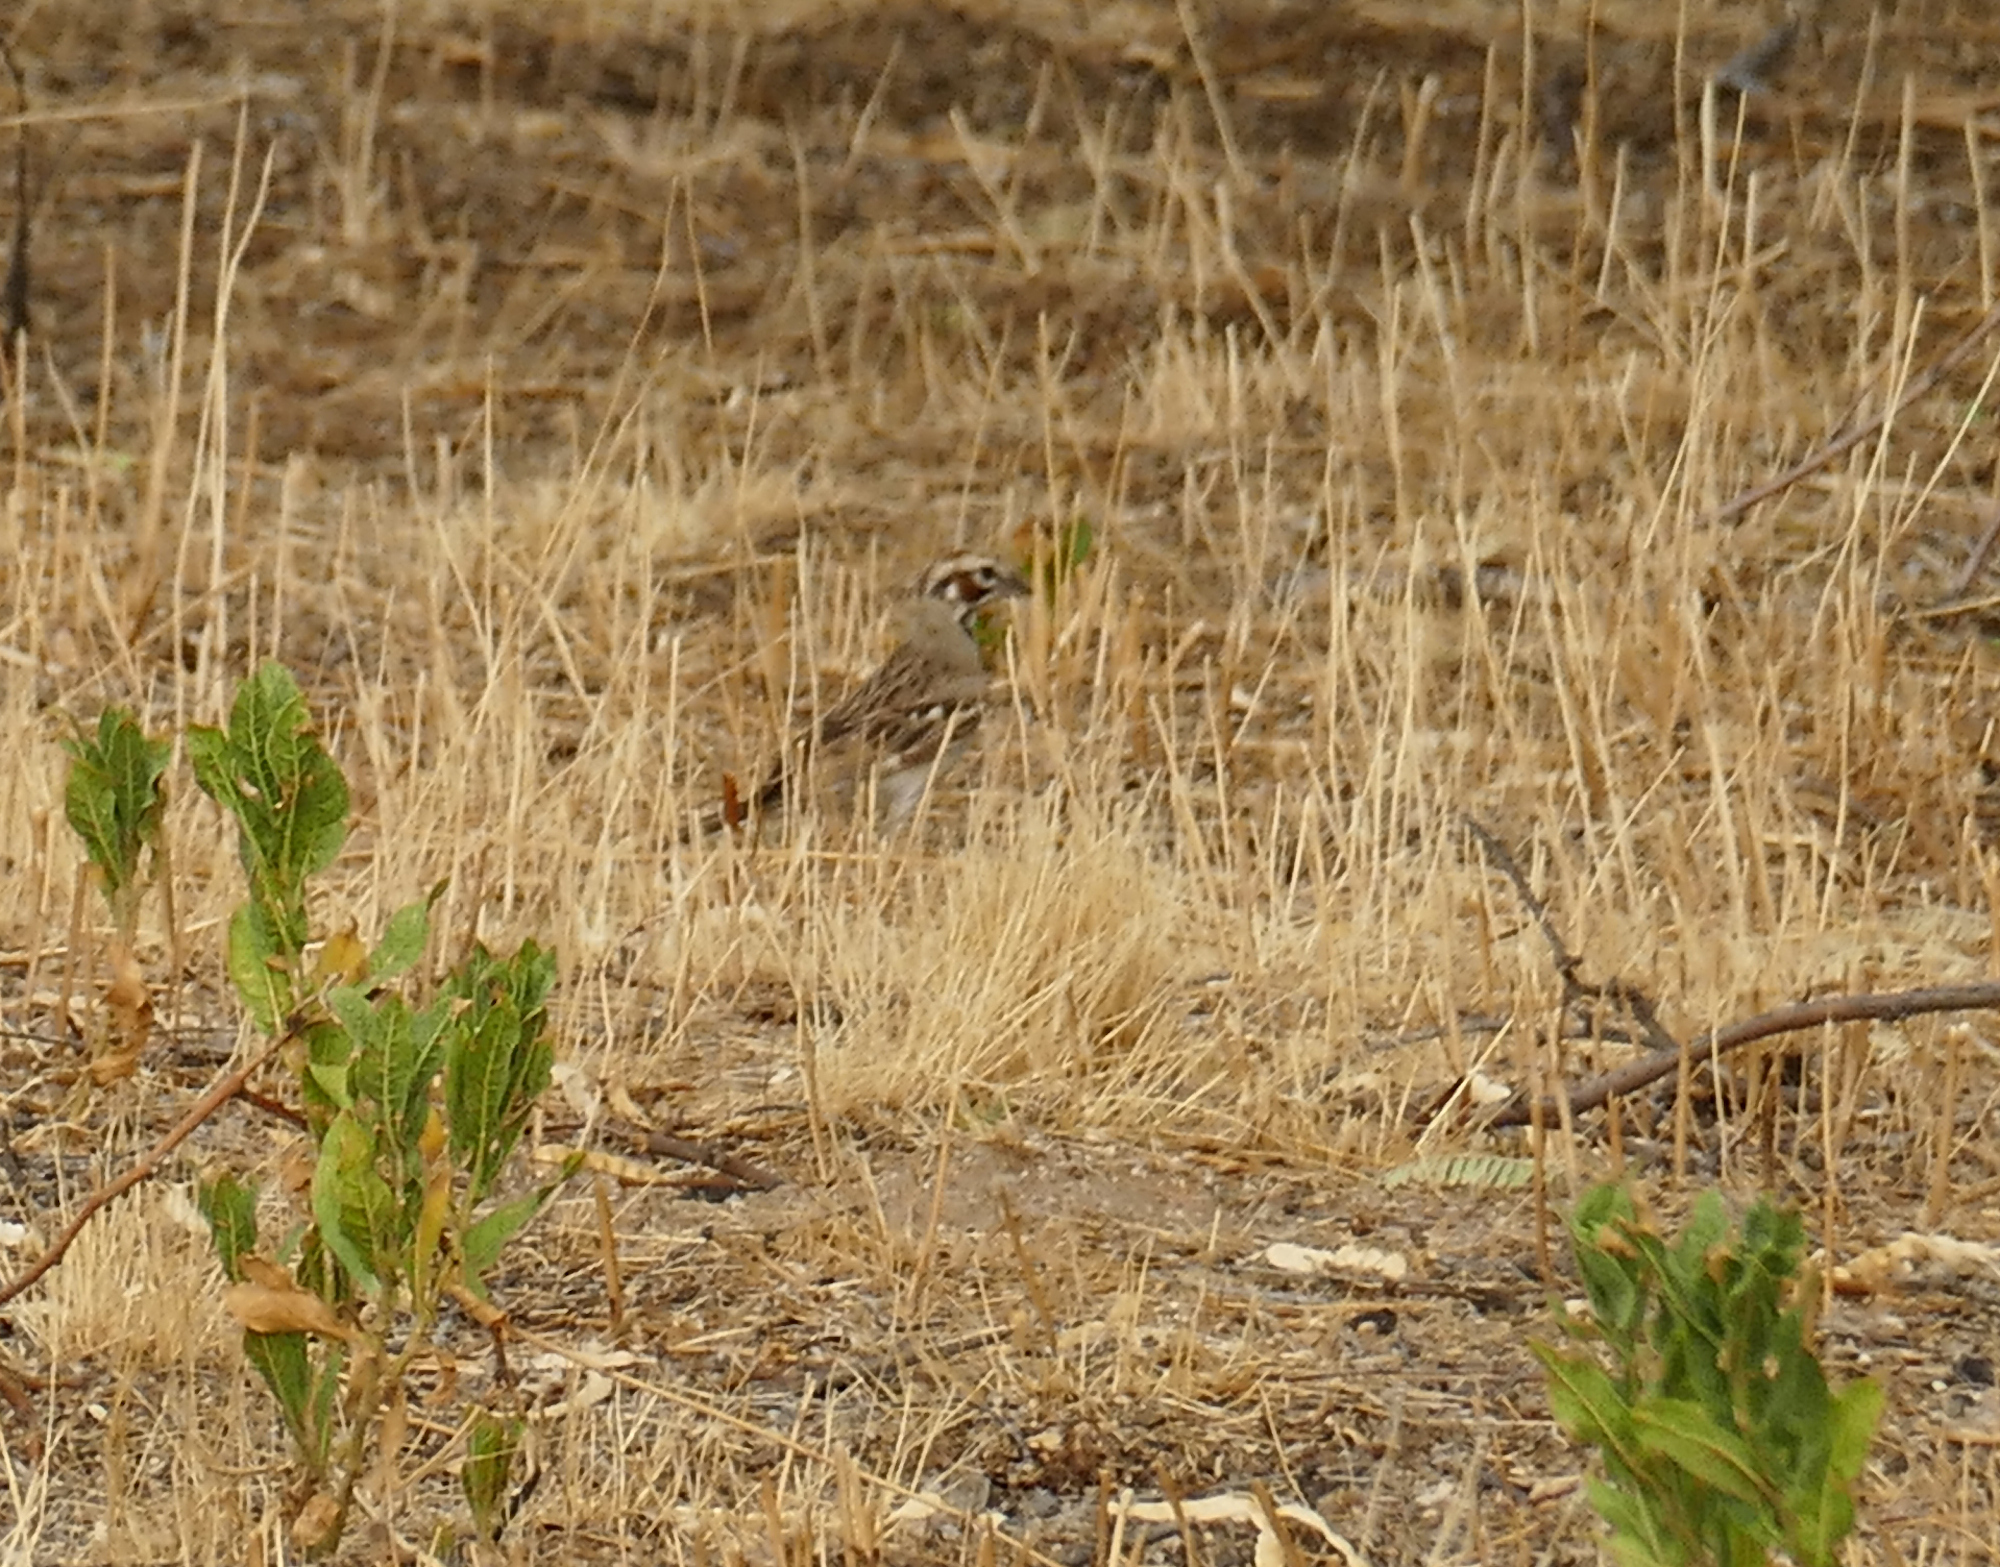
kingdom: Animalia
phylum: Chordata
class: Aves
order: Passeriformes
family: Passerellidae
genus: Chondestes
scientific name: Chondestes grammacus
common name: Lark sparrow
